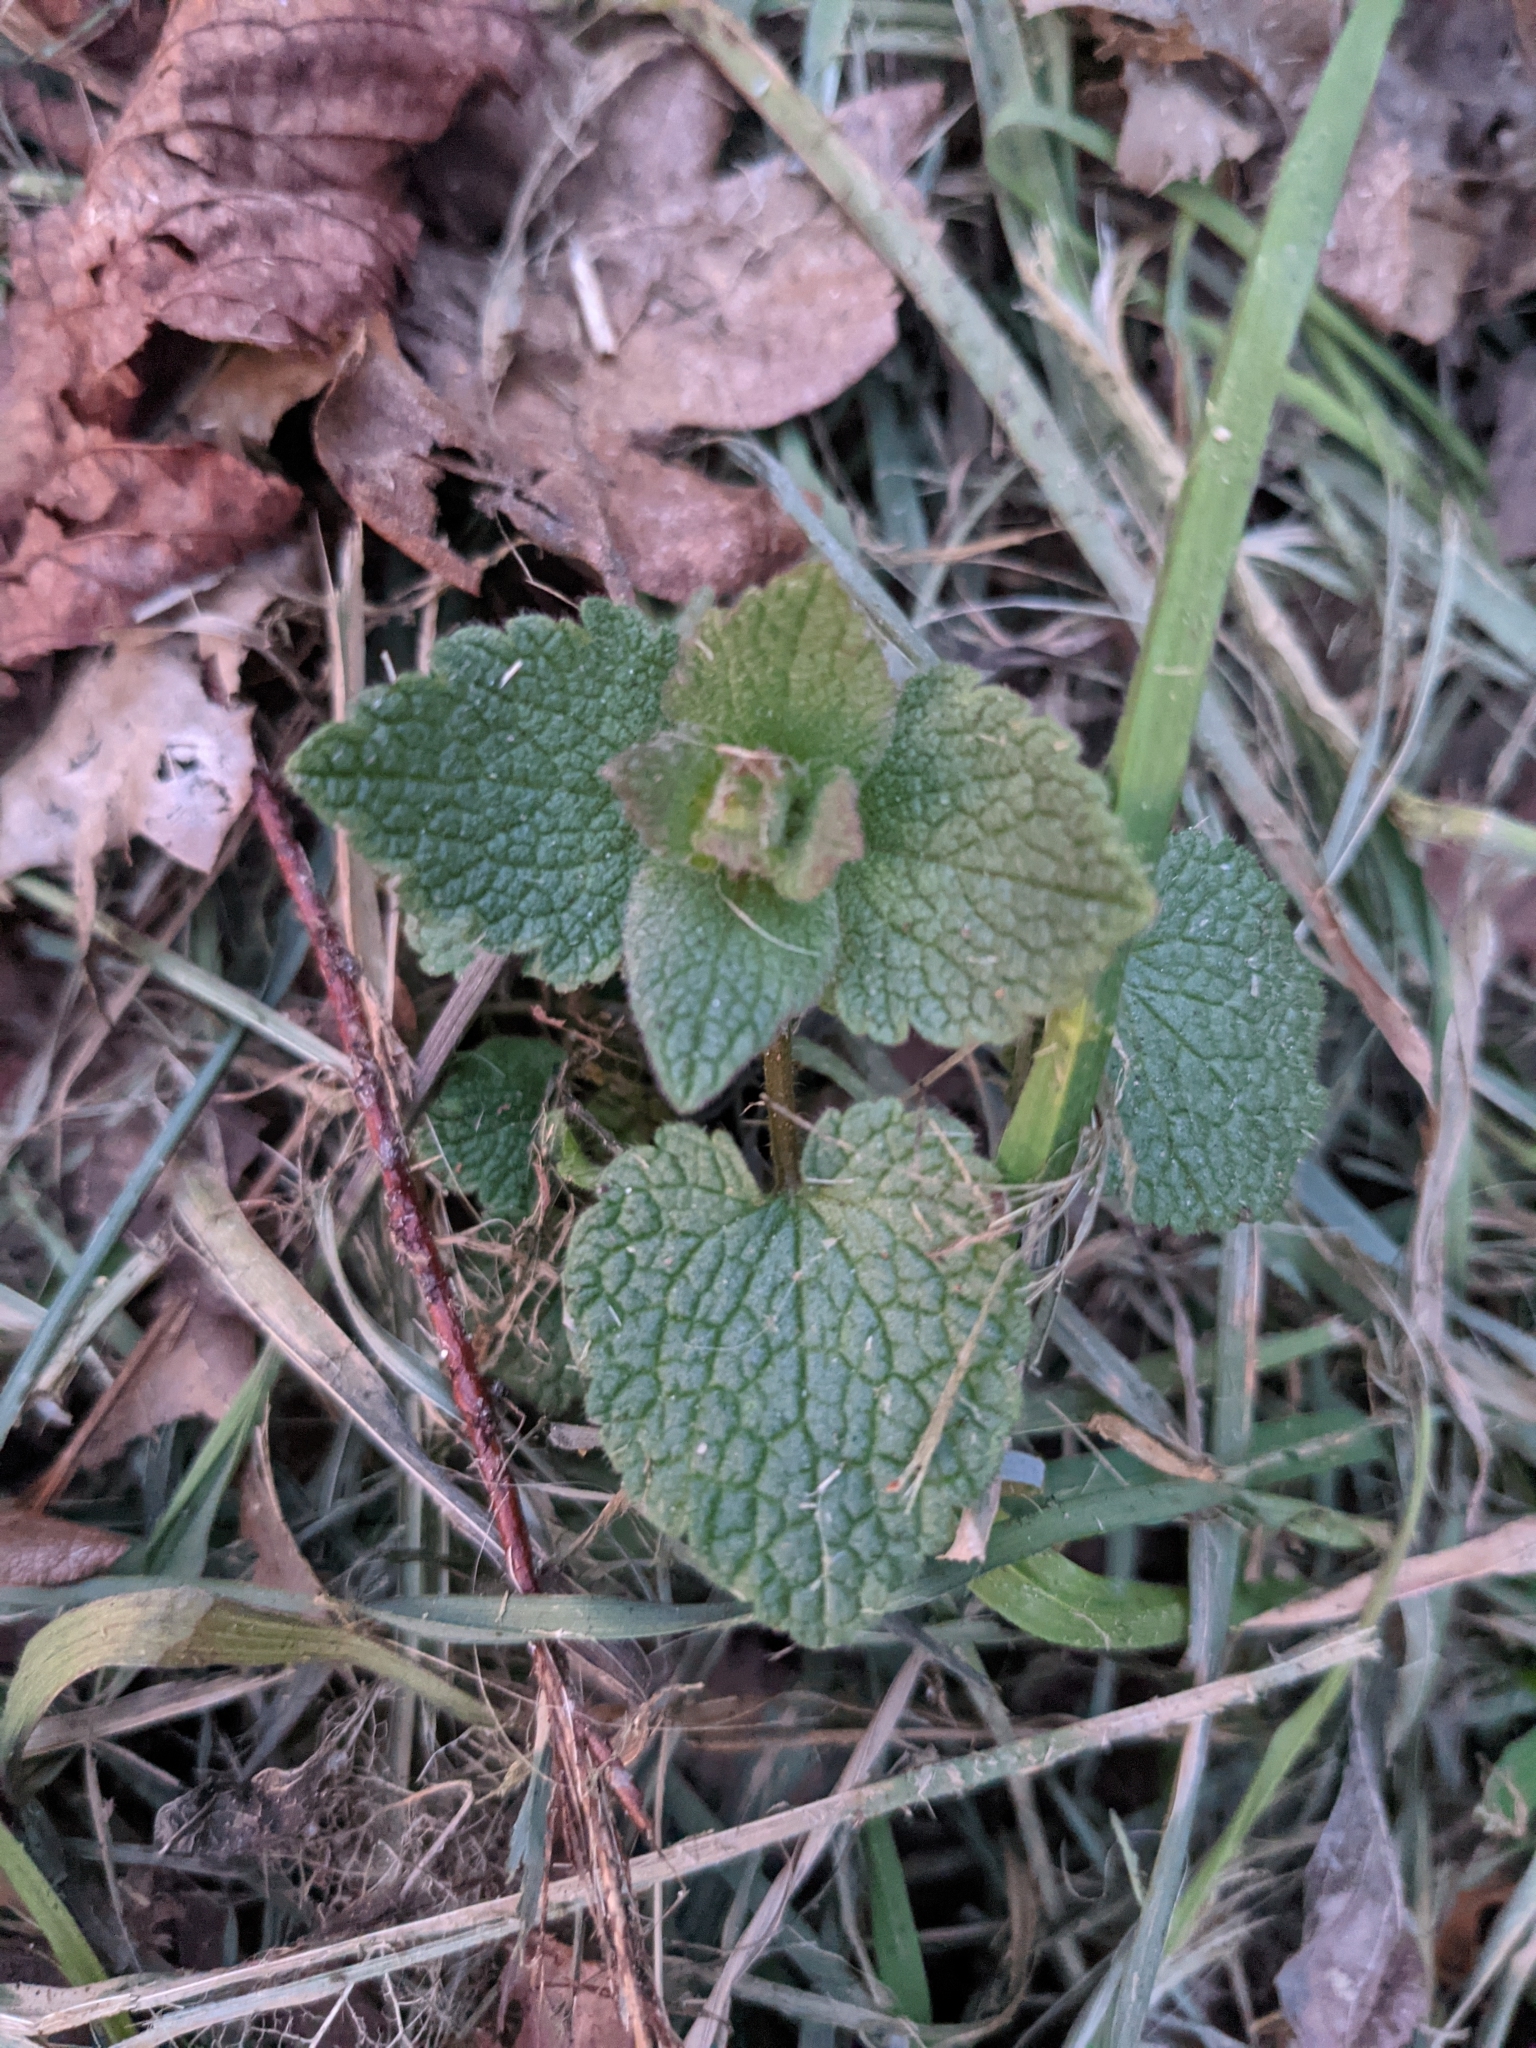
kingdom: Plantae
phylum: Tracheophyta
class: Magnoliopsida
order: Lamiales
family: Lamiaceae
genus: Lamium
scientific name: Lamium purpureum
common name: Red dead-nettle
